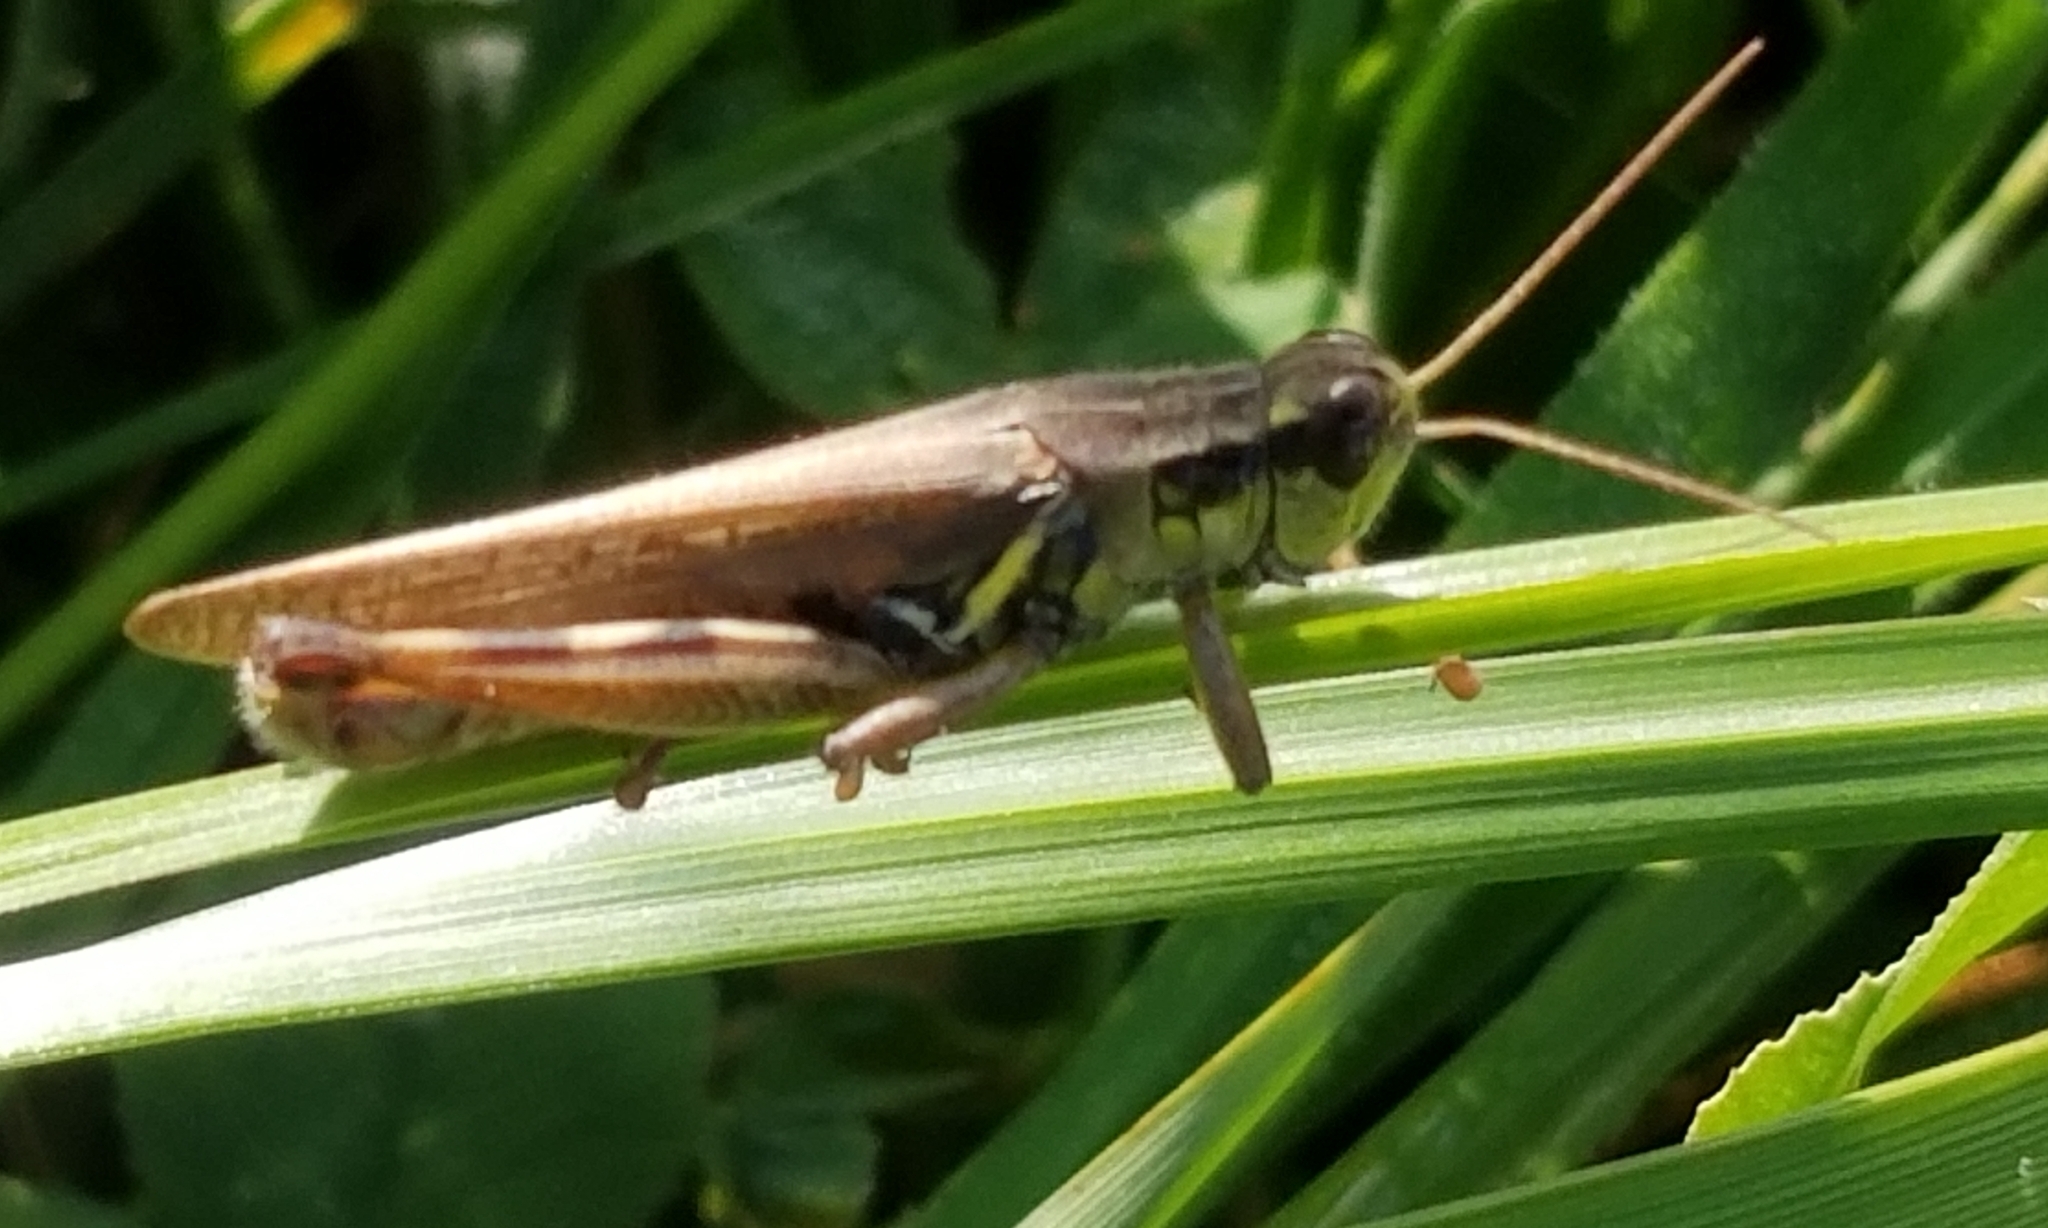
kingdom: Animalia
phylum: Arthropoda
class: Insecta
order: Orthoptera
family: Acrididae
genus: Melanoplus
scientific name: Melanoplus femurrubrum
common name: Red-legged grasshopper
